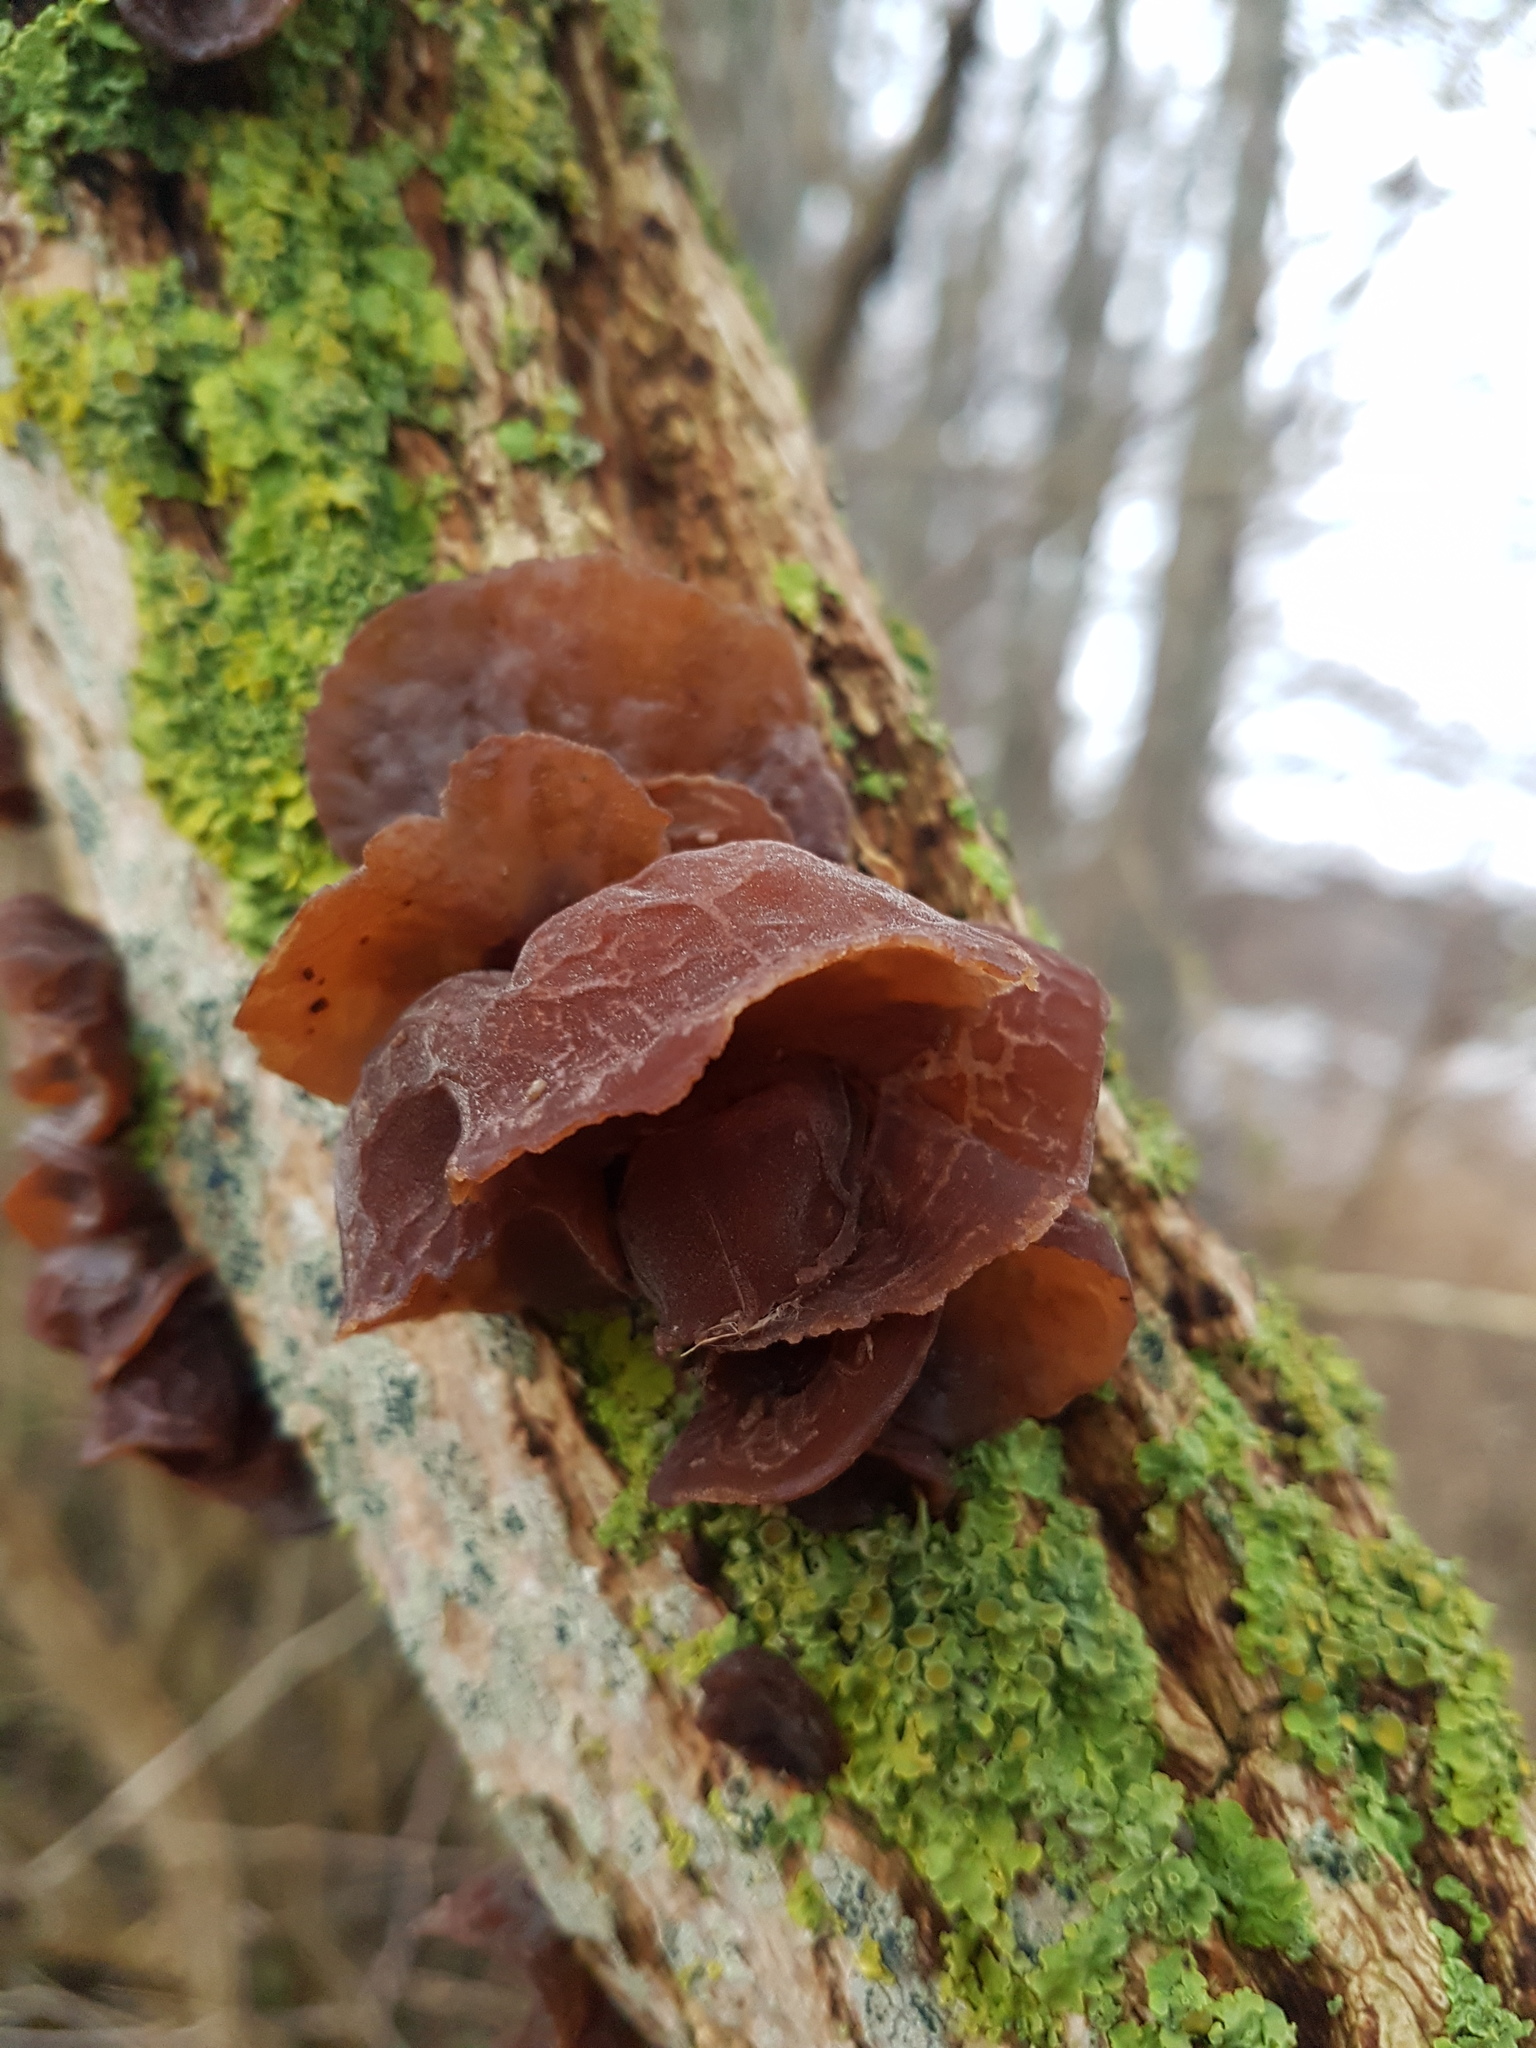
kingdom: Fungi
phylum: Basidiomycota
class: Agaricomycetes
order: Auriculariales
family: Auriculariaceae
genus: Auricularia
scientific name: Auricularia auricula-judae
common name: Jelly ear
